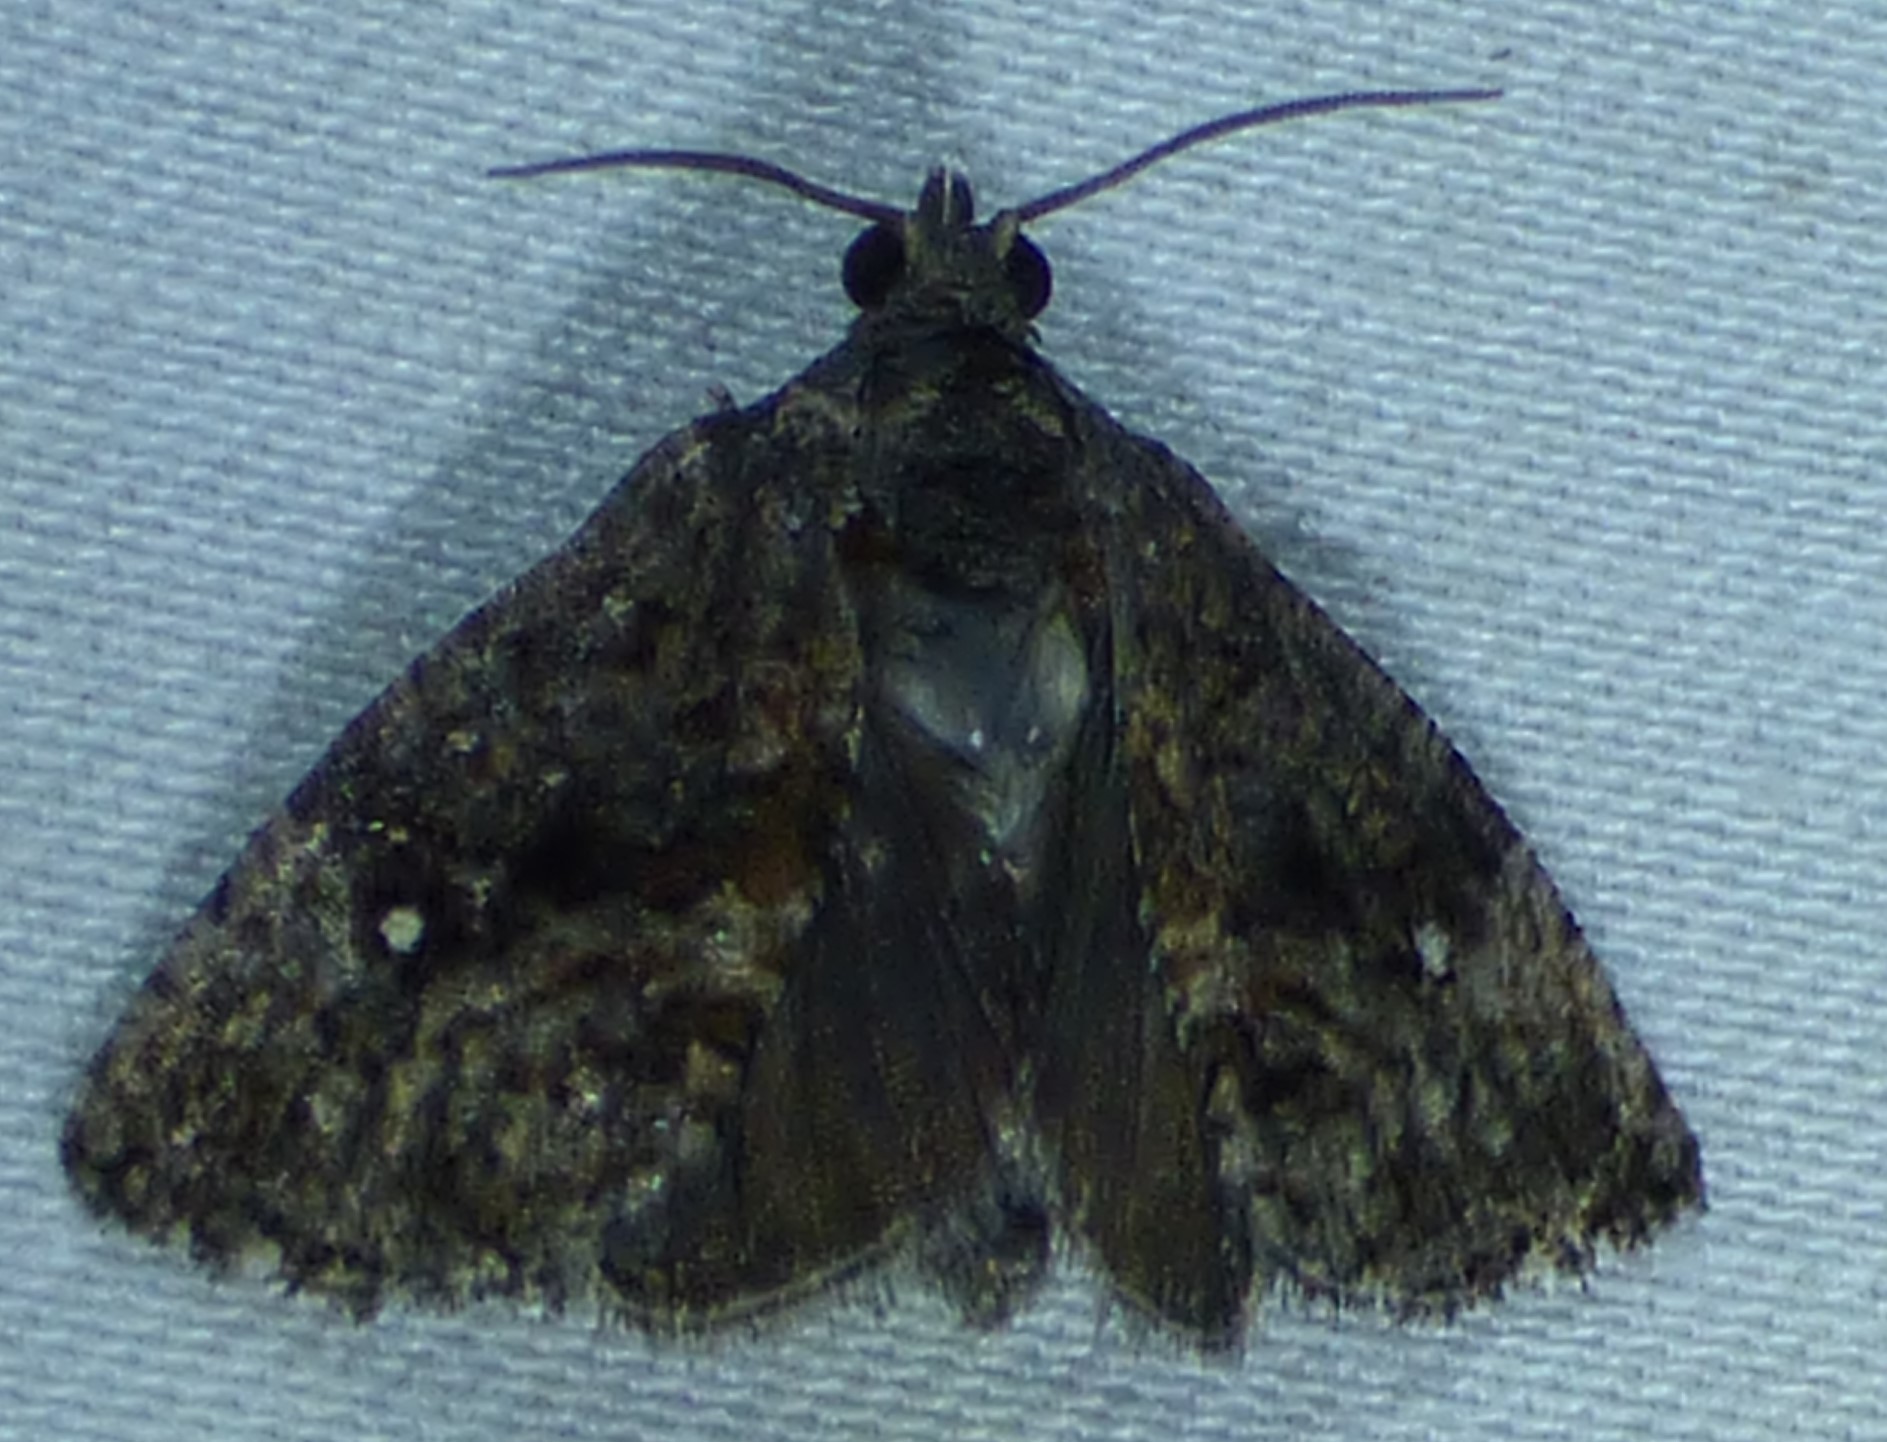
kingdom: Animalia
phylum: Arthropoda
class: Insecta
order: Lepidoptera
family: Tortricidae
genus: Gymnandrosoma
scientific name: Gymnandrosoma punctidiscanum
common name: Dotted ecdytolopha moth
